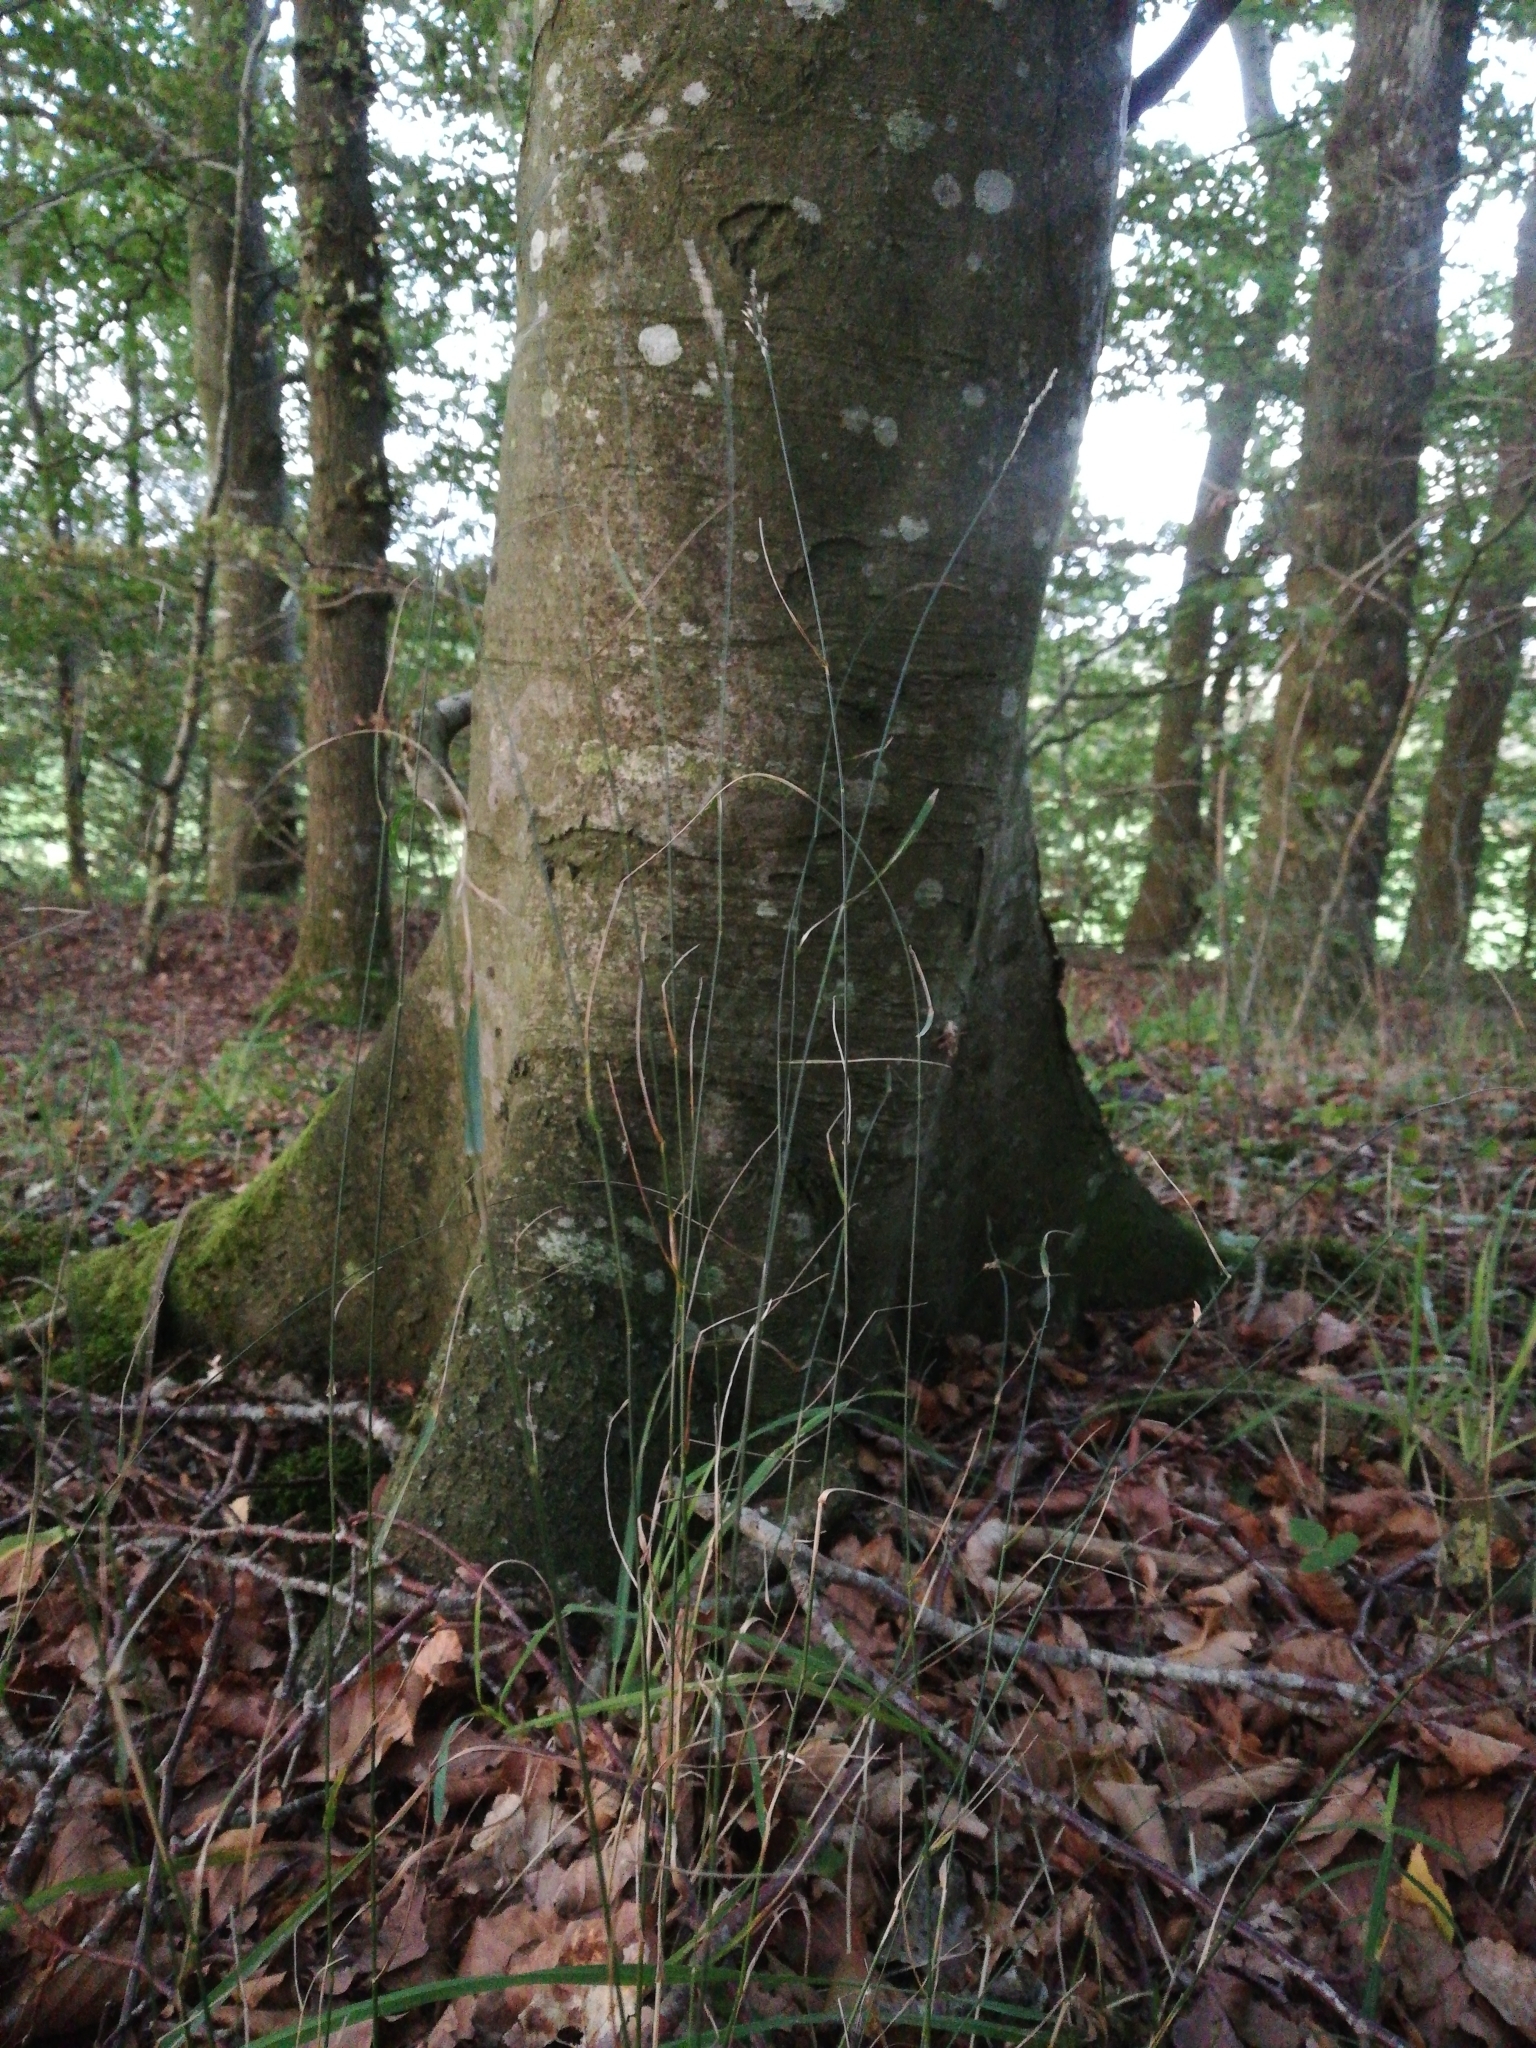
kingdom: Plantae
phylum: Tracheophyta
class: Liliopsida
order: Poales
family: Poaceae
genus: Poa
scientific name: Poa nemoralis
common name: Wood bluegrass
